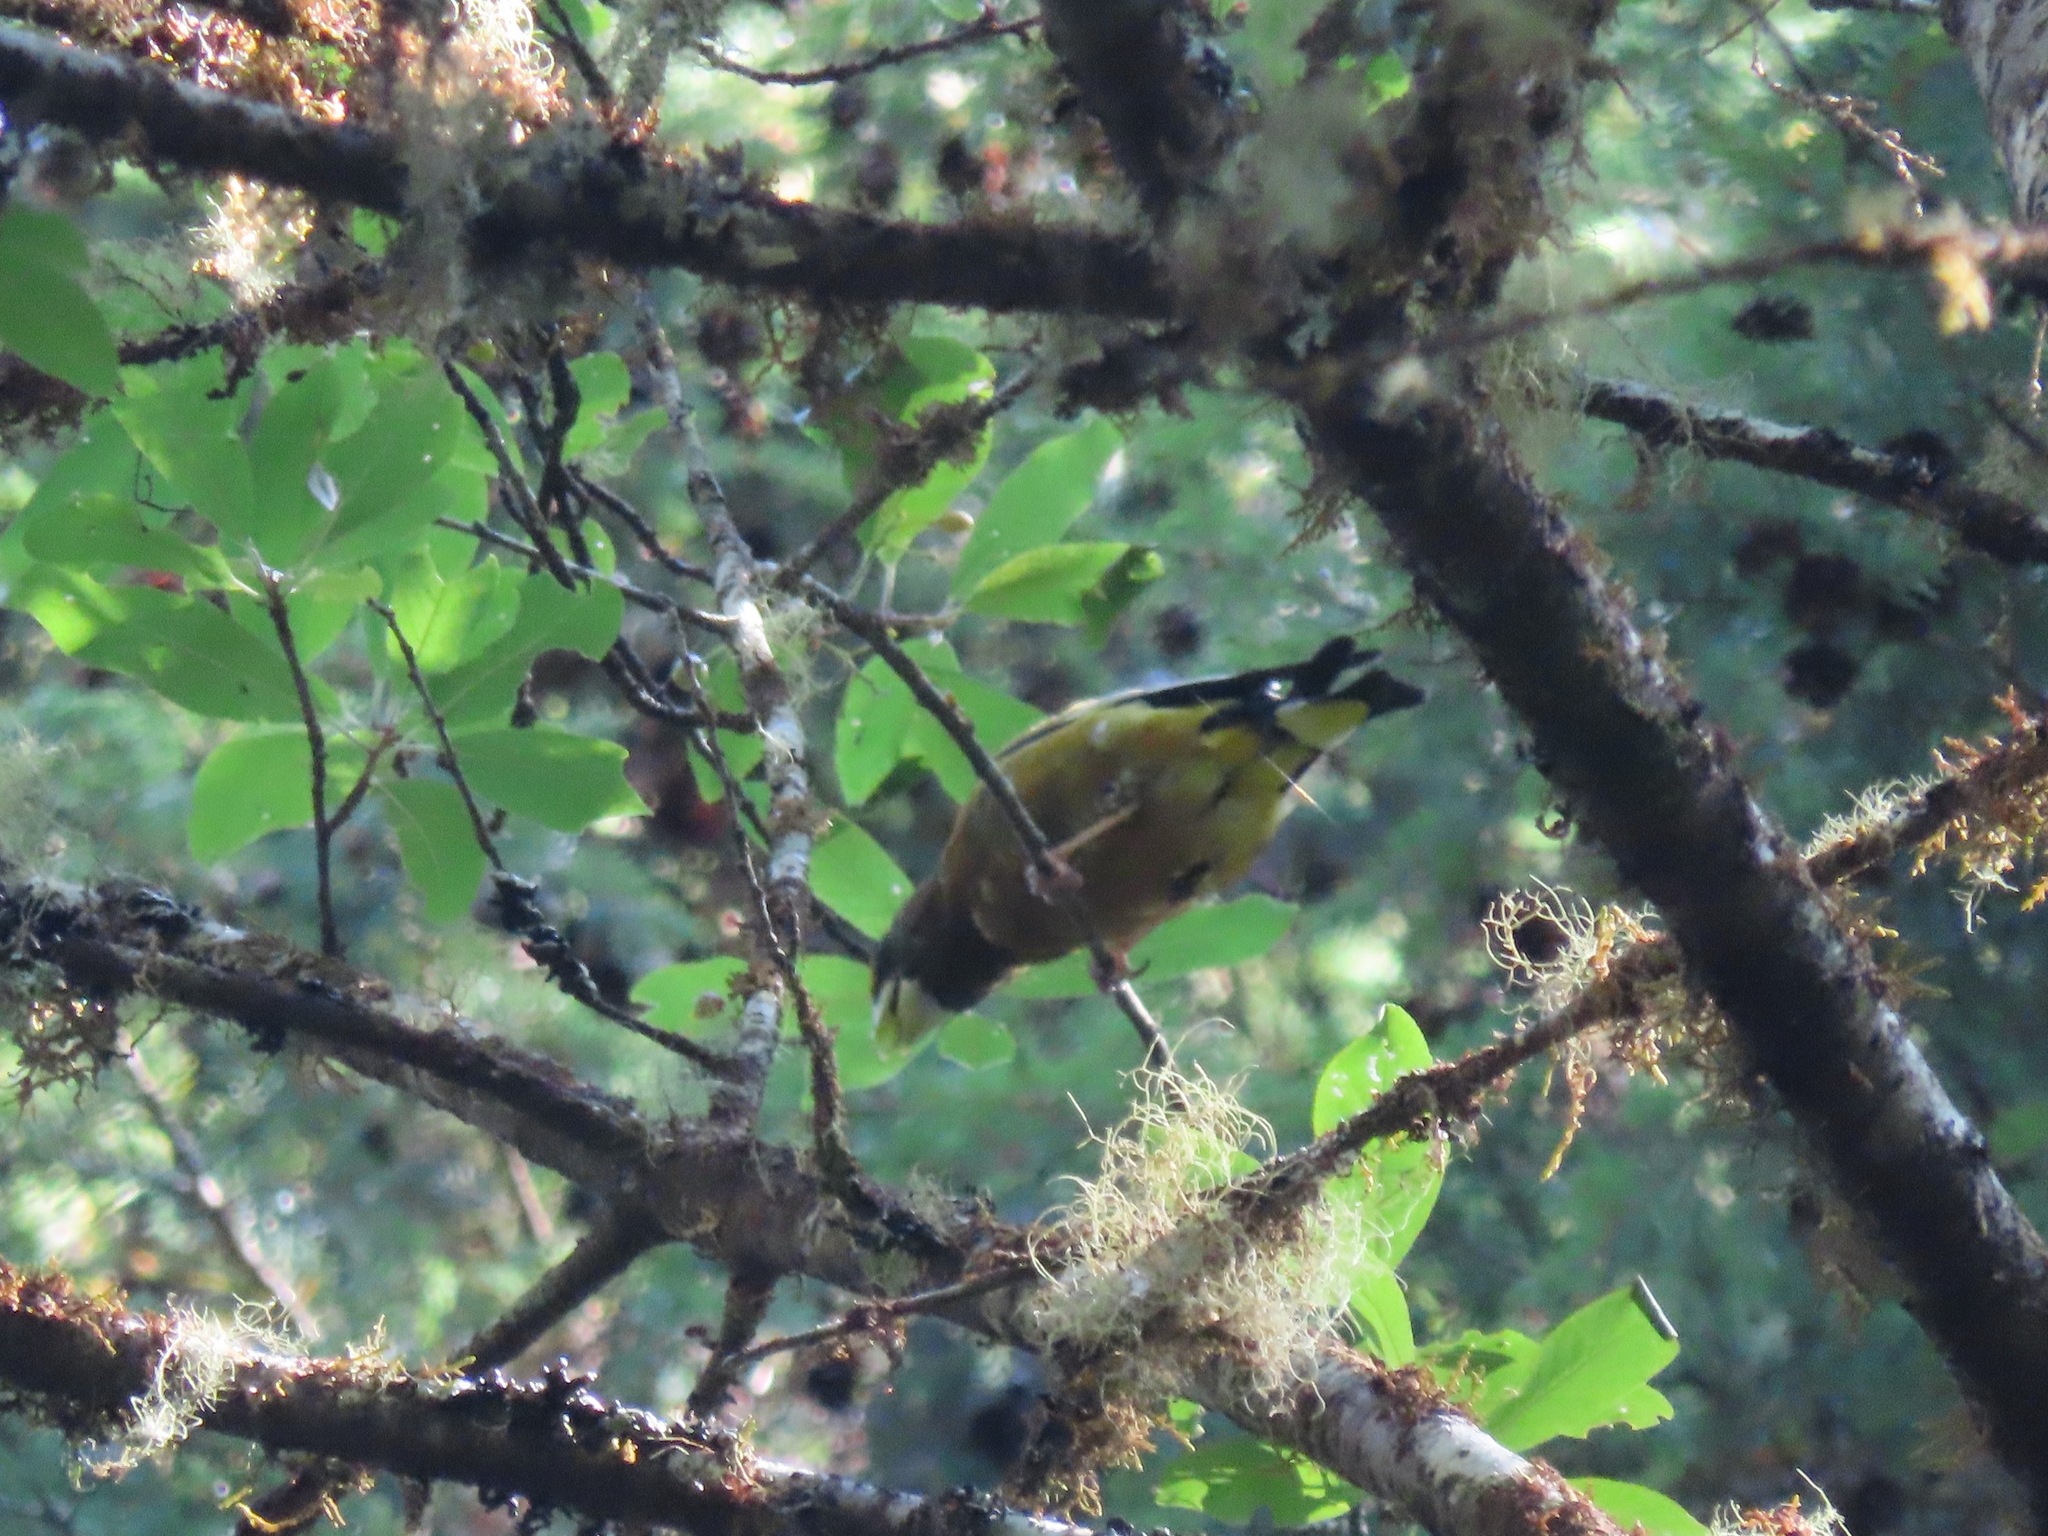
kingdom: Animalia
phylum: Chordata
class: Aves
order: Passeriformes
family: Fringillidae
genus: Hesperiphona
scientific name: Hesperiphona vespertina
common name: Evening grosbeak
